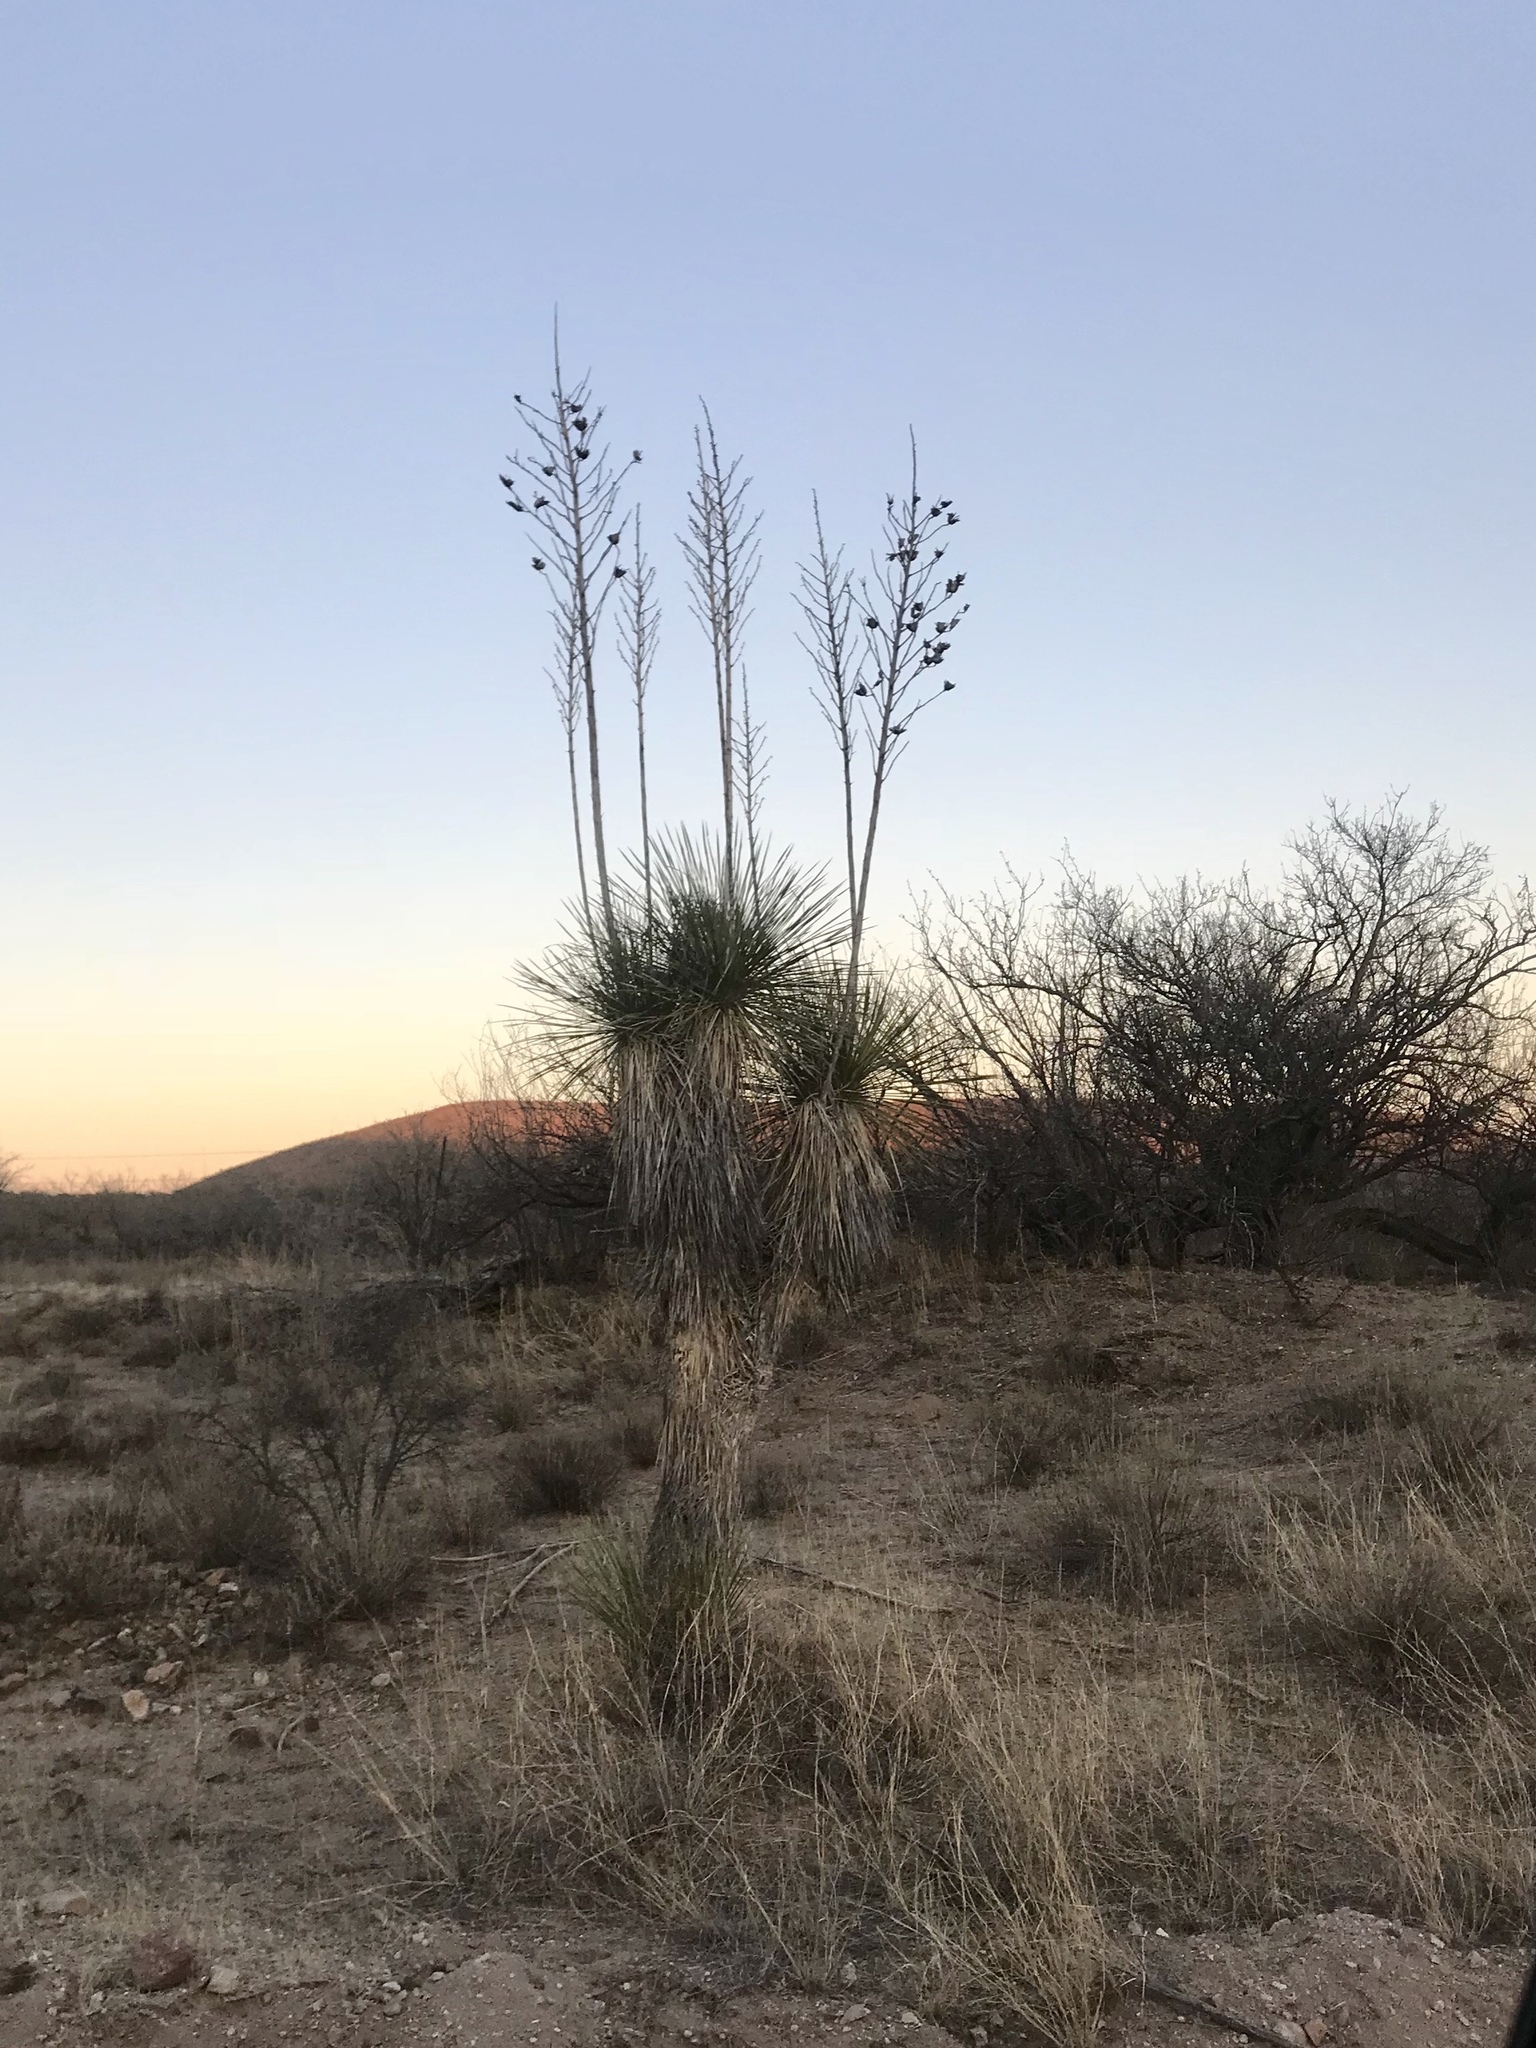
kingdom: Plantae
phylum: Tracheophyta
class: Liliopsida
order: Asparagales
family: Asparagaceae
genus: Yucca
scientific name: Yucca elata
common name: Palmella
